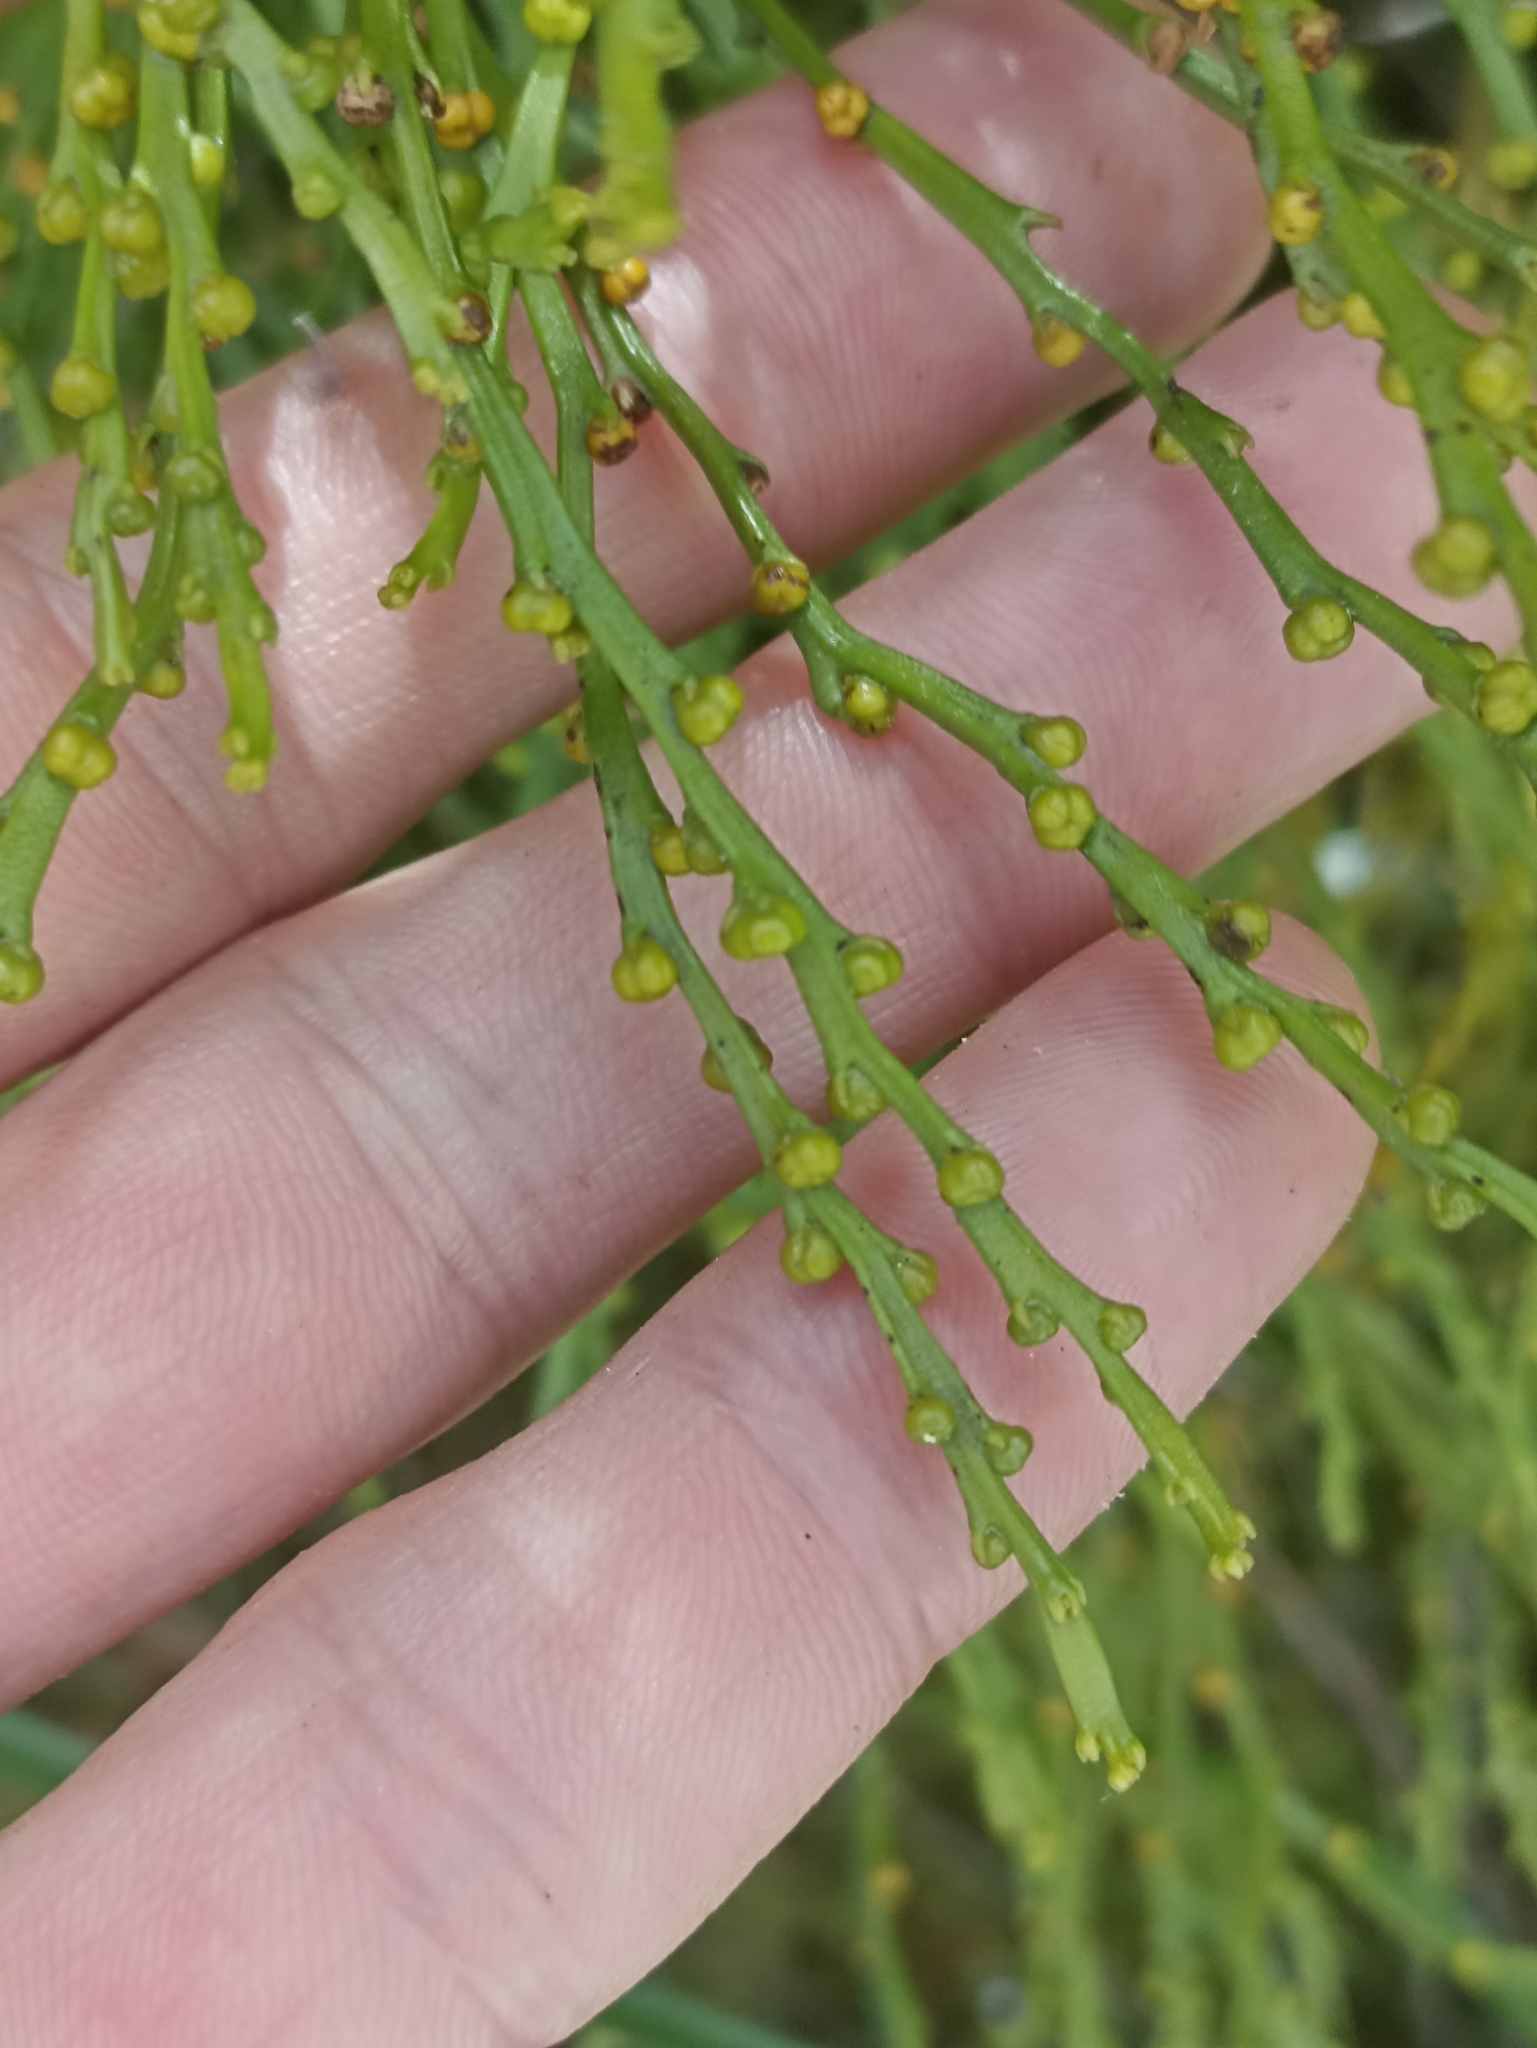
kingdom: Plantae
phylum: Tracheophyta
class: Polypodiopsida
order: Psilotales
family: Psilotaceae
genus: Psilotum
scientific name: Psilotum nudum
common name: Skeleton fork fern
